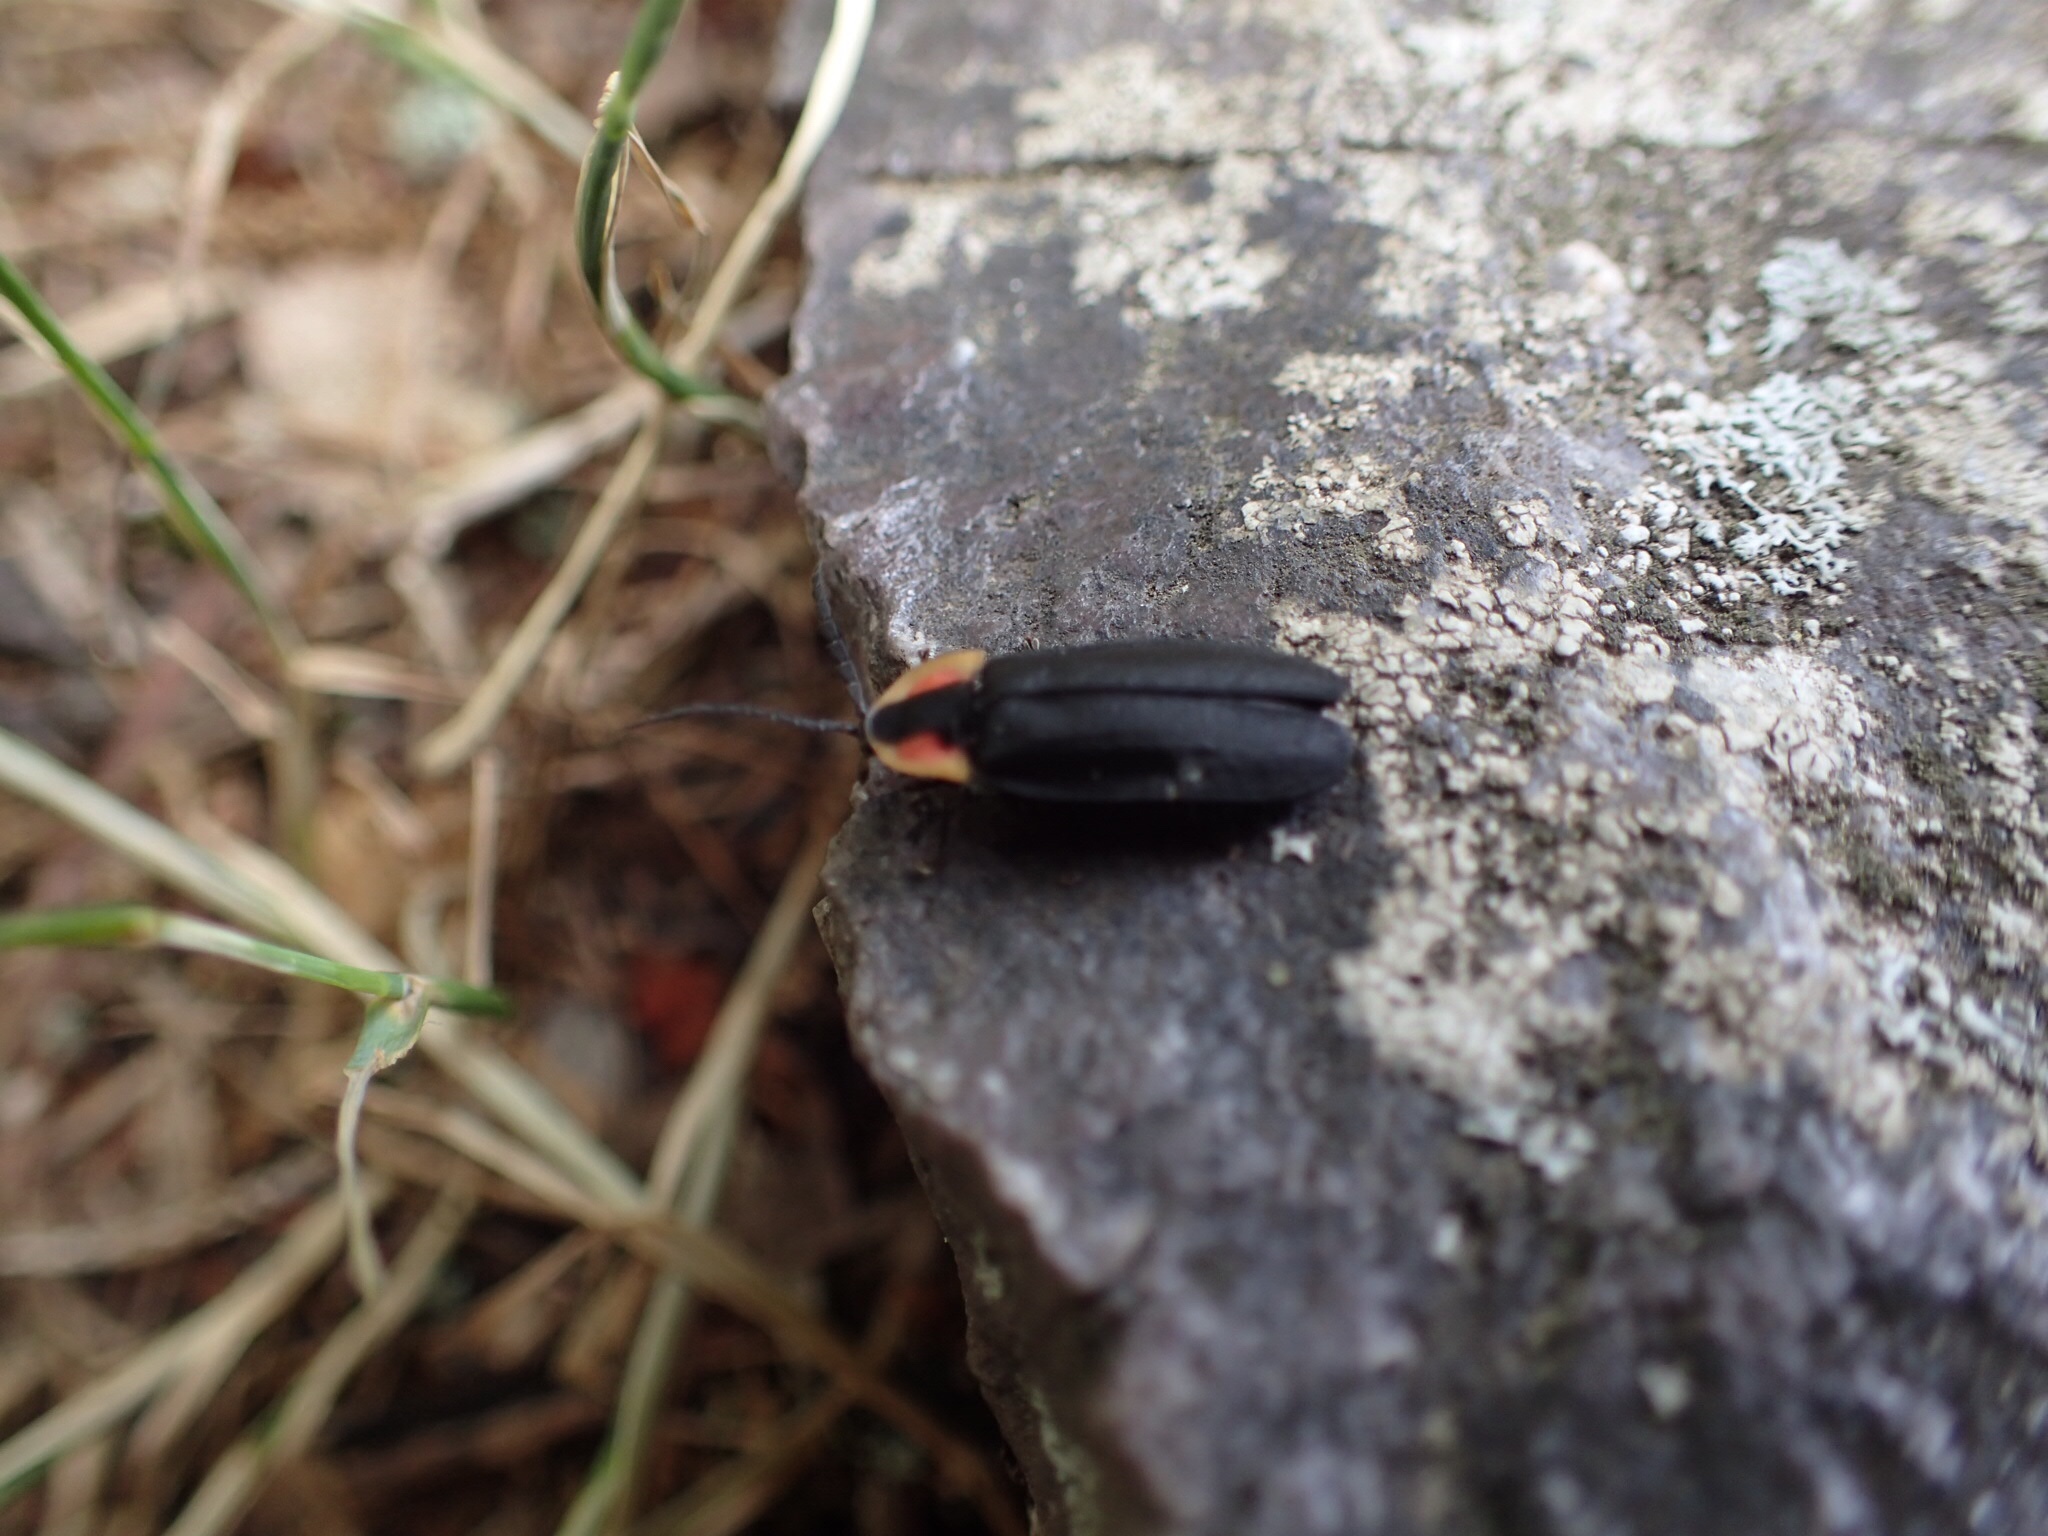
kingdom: Animalia
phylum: Arthropoda
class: Insecta
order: Coleoptera
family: Lampyridae
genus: Lucidota
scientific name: Lucidota atra
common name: Black firefly
